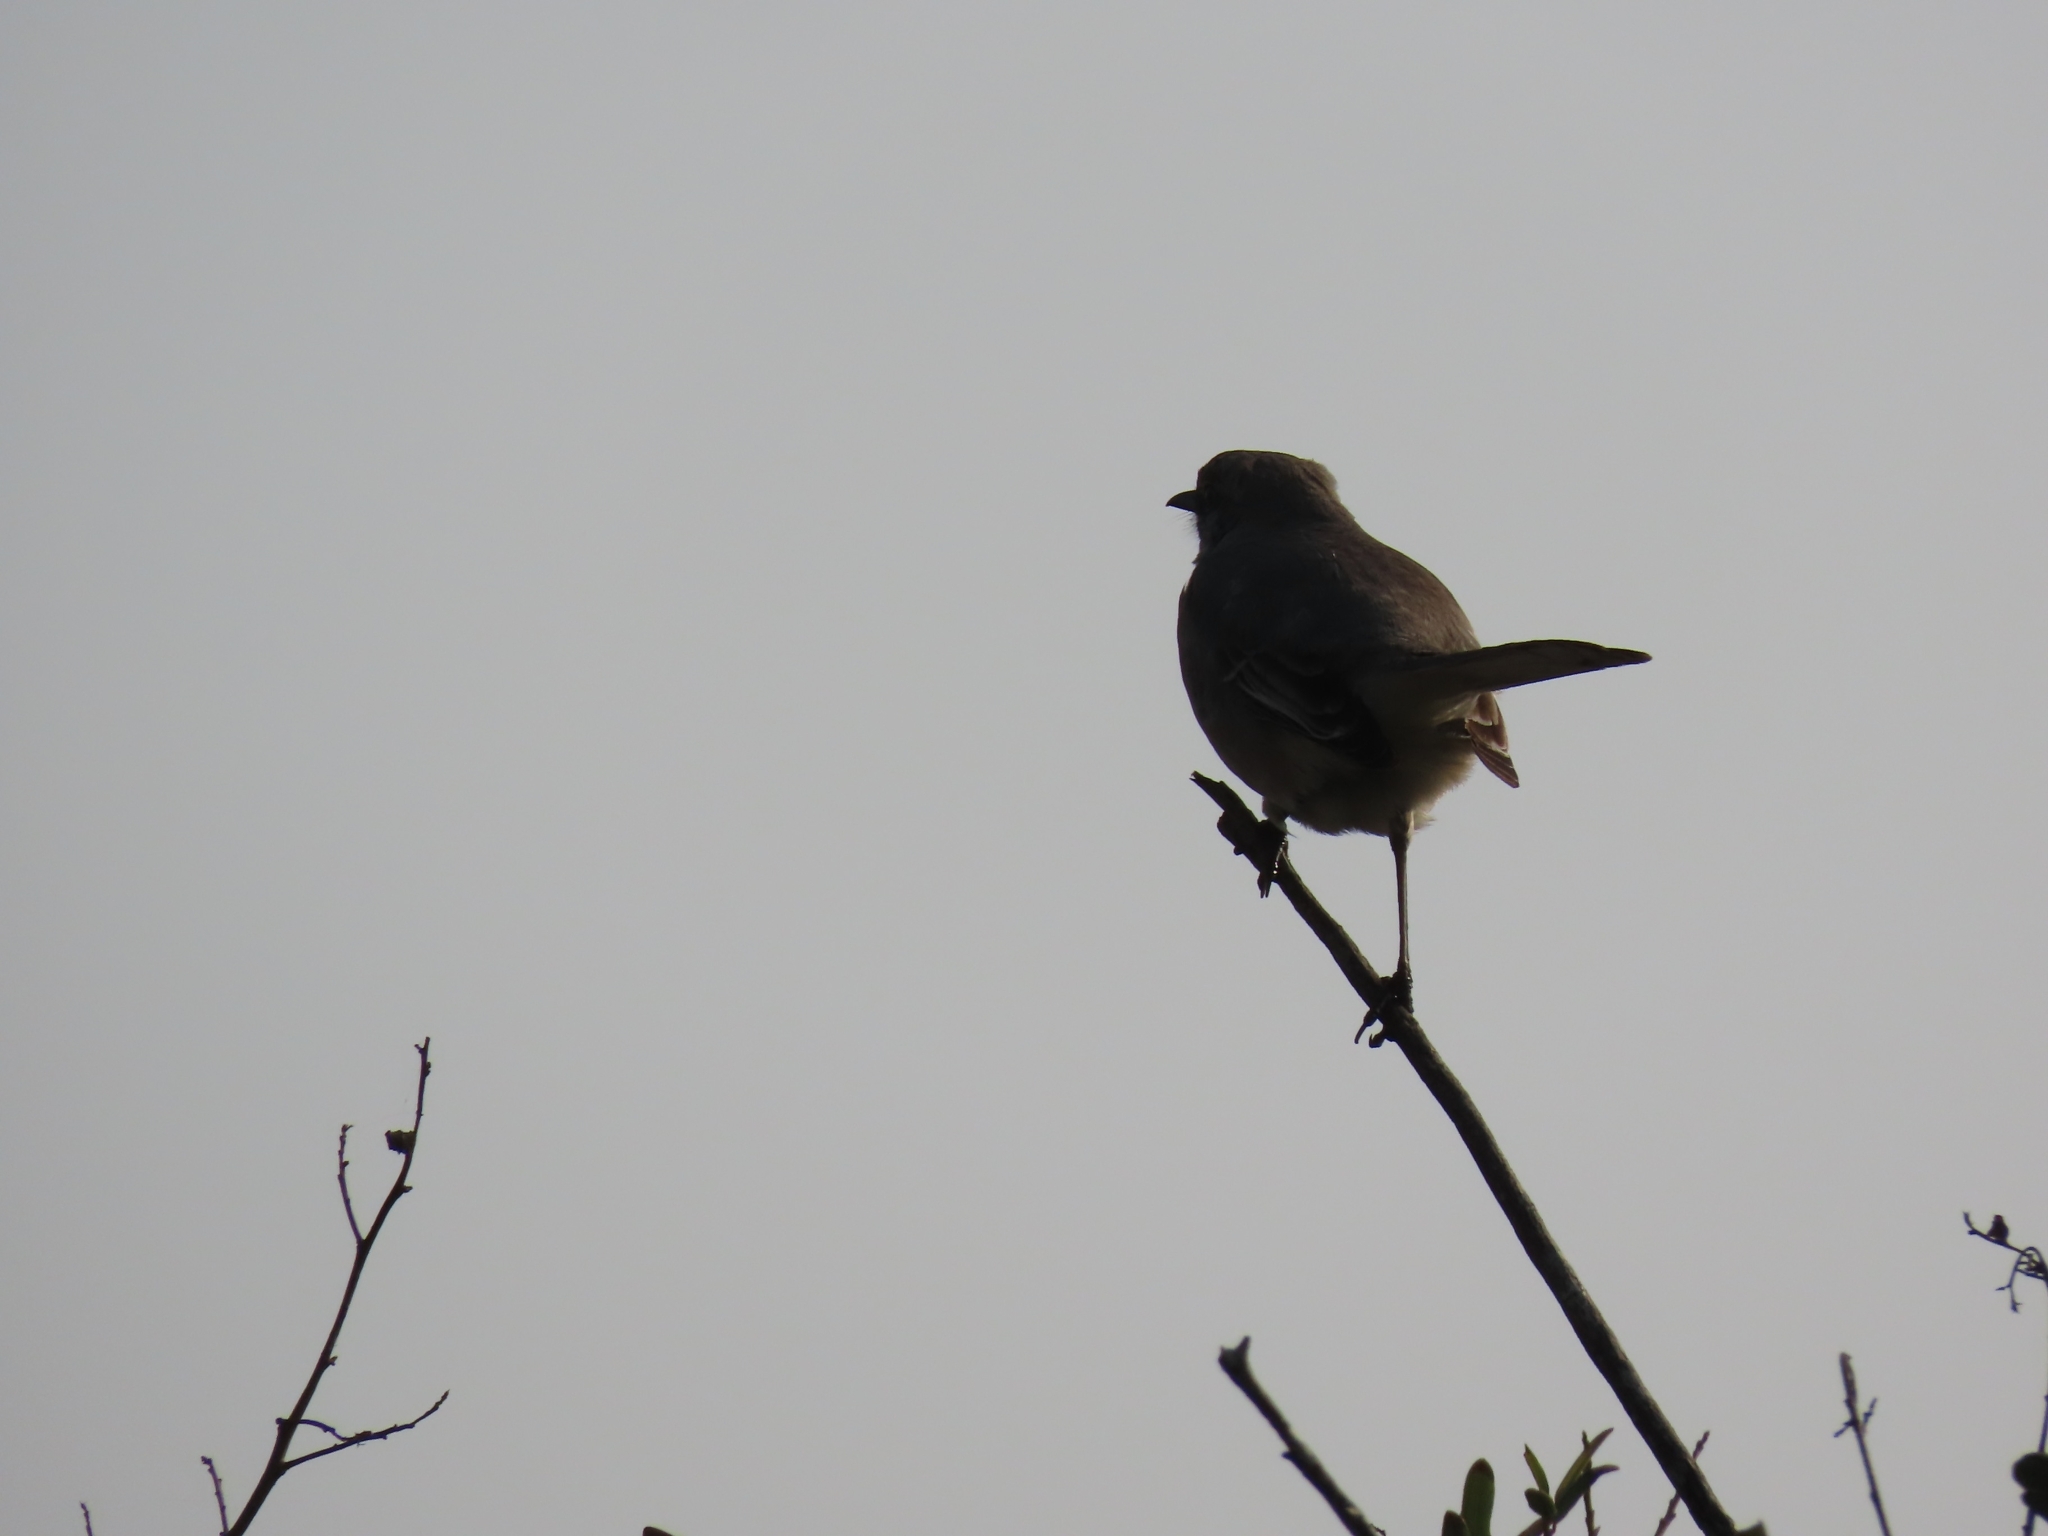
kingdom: Animalia
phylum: Chordata
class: Aves
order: Passeriformes
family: Mimidae
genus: Mimus
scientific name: Mimus polyglottos
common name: Northern mockingbird
